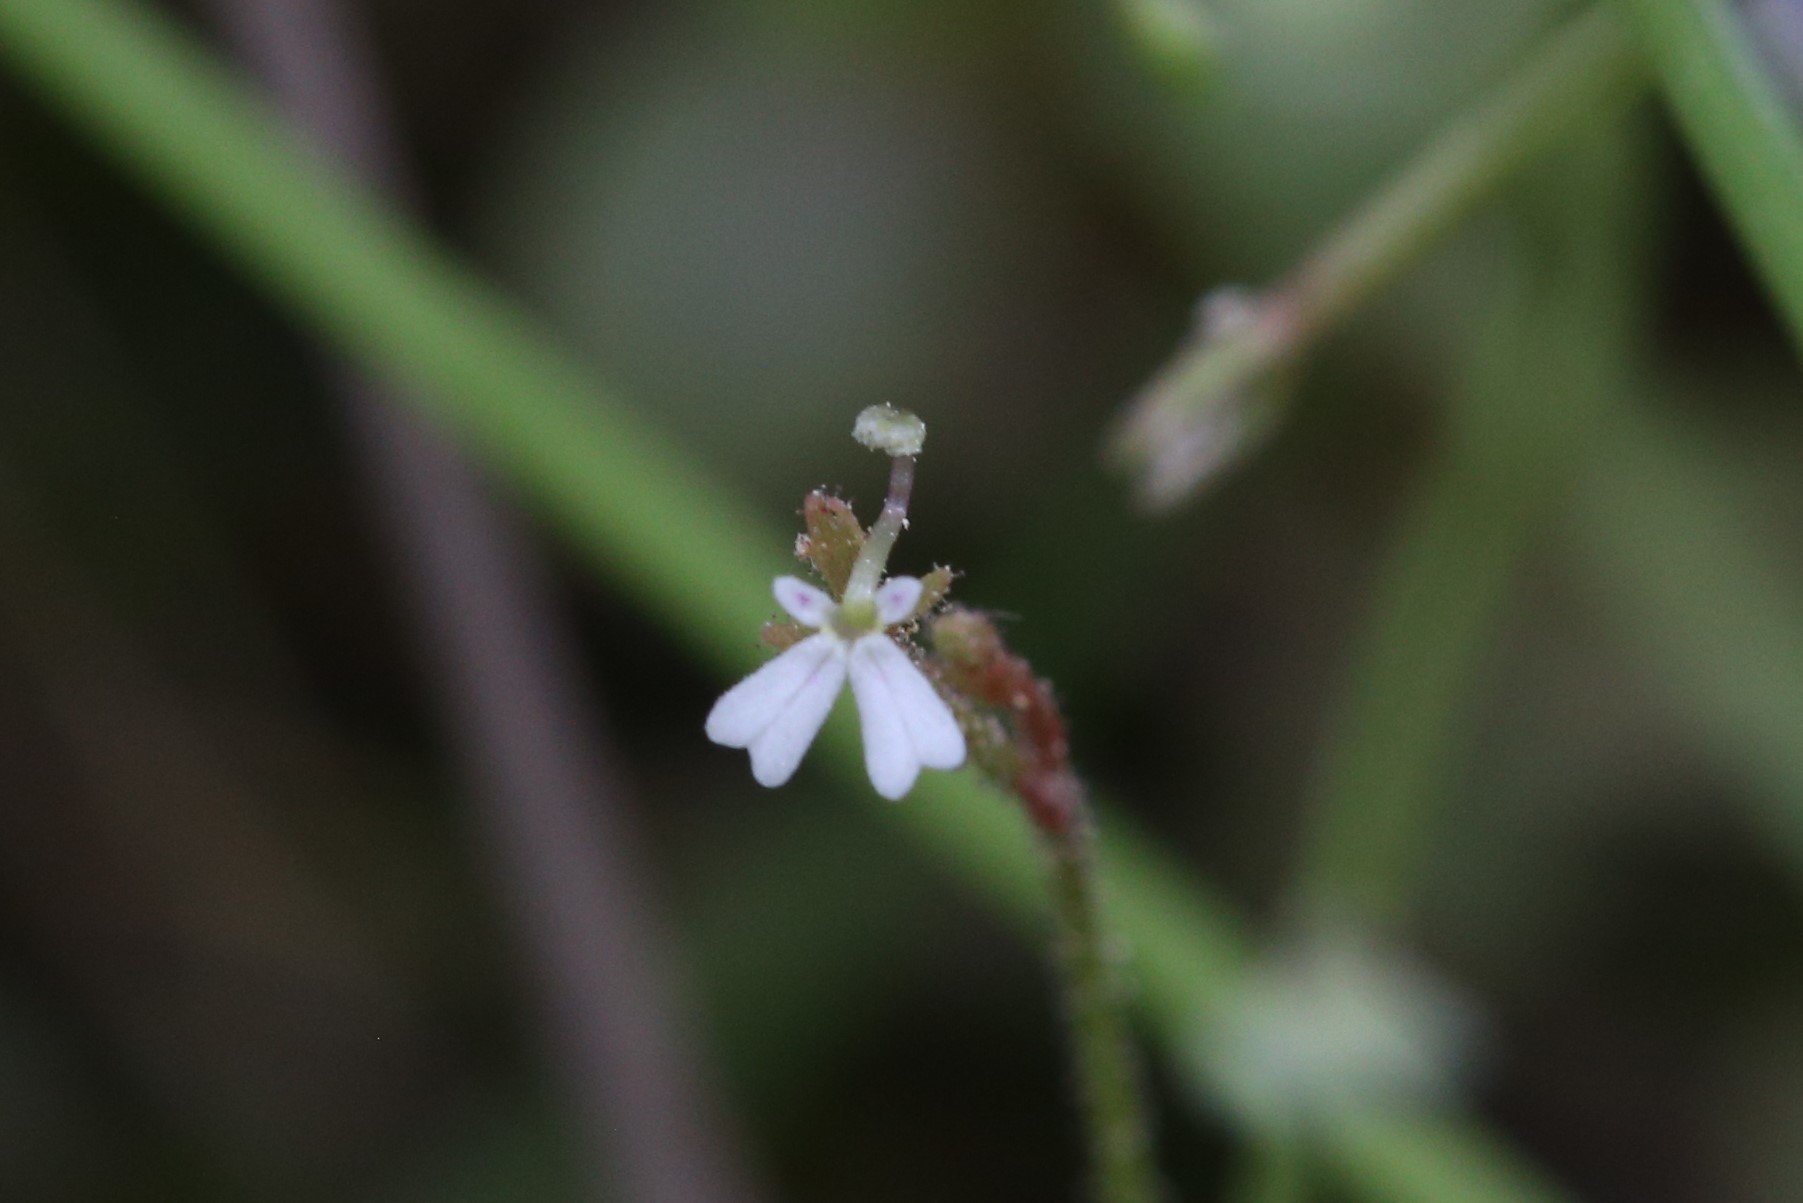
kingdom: Plantae
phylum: Tracheophyta
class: Magnoliopsida
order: Asterales
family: Stylidiaceae
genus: Stylidium
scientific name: Stylidium tenerum
